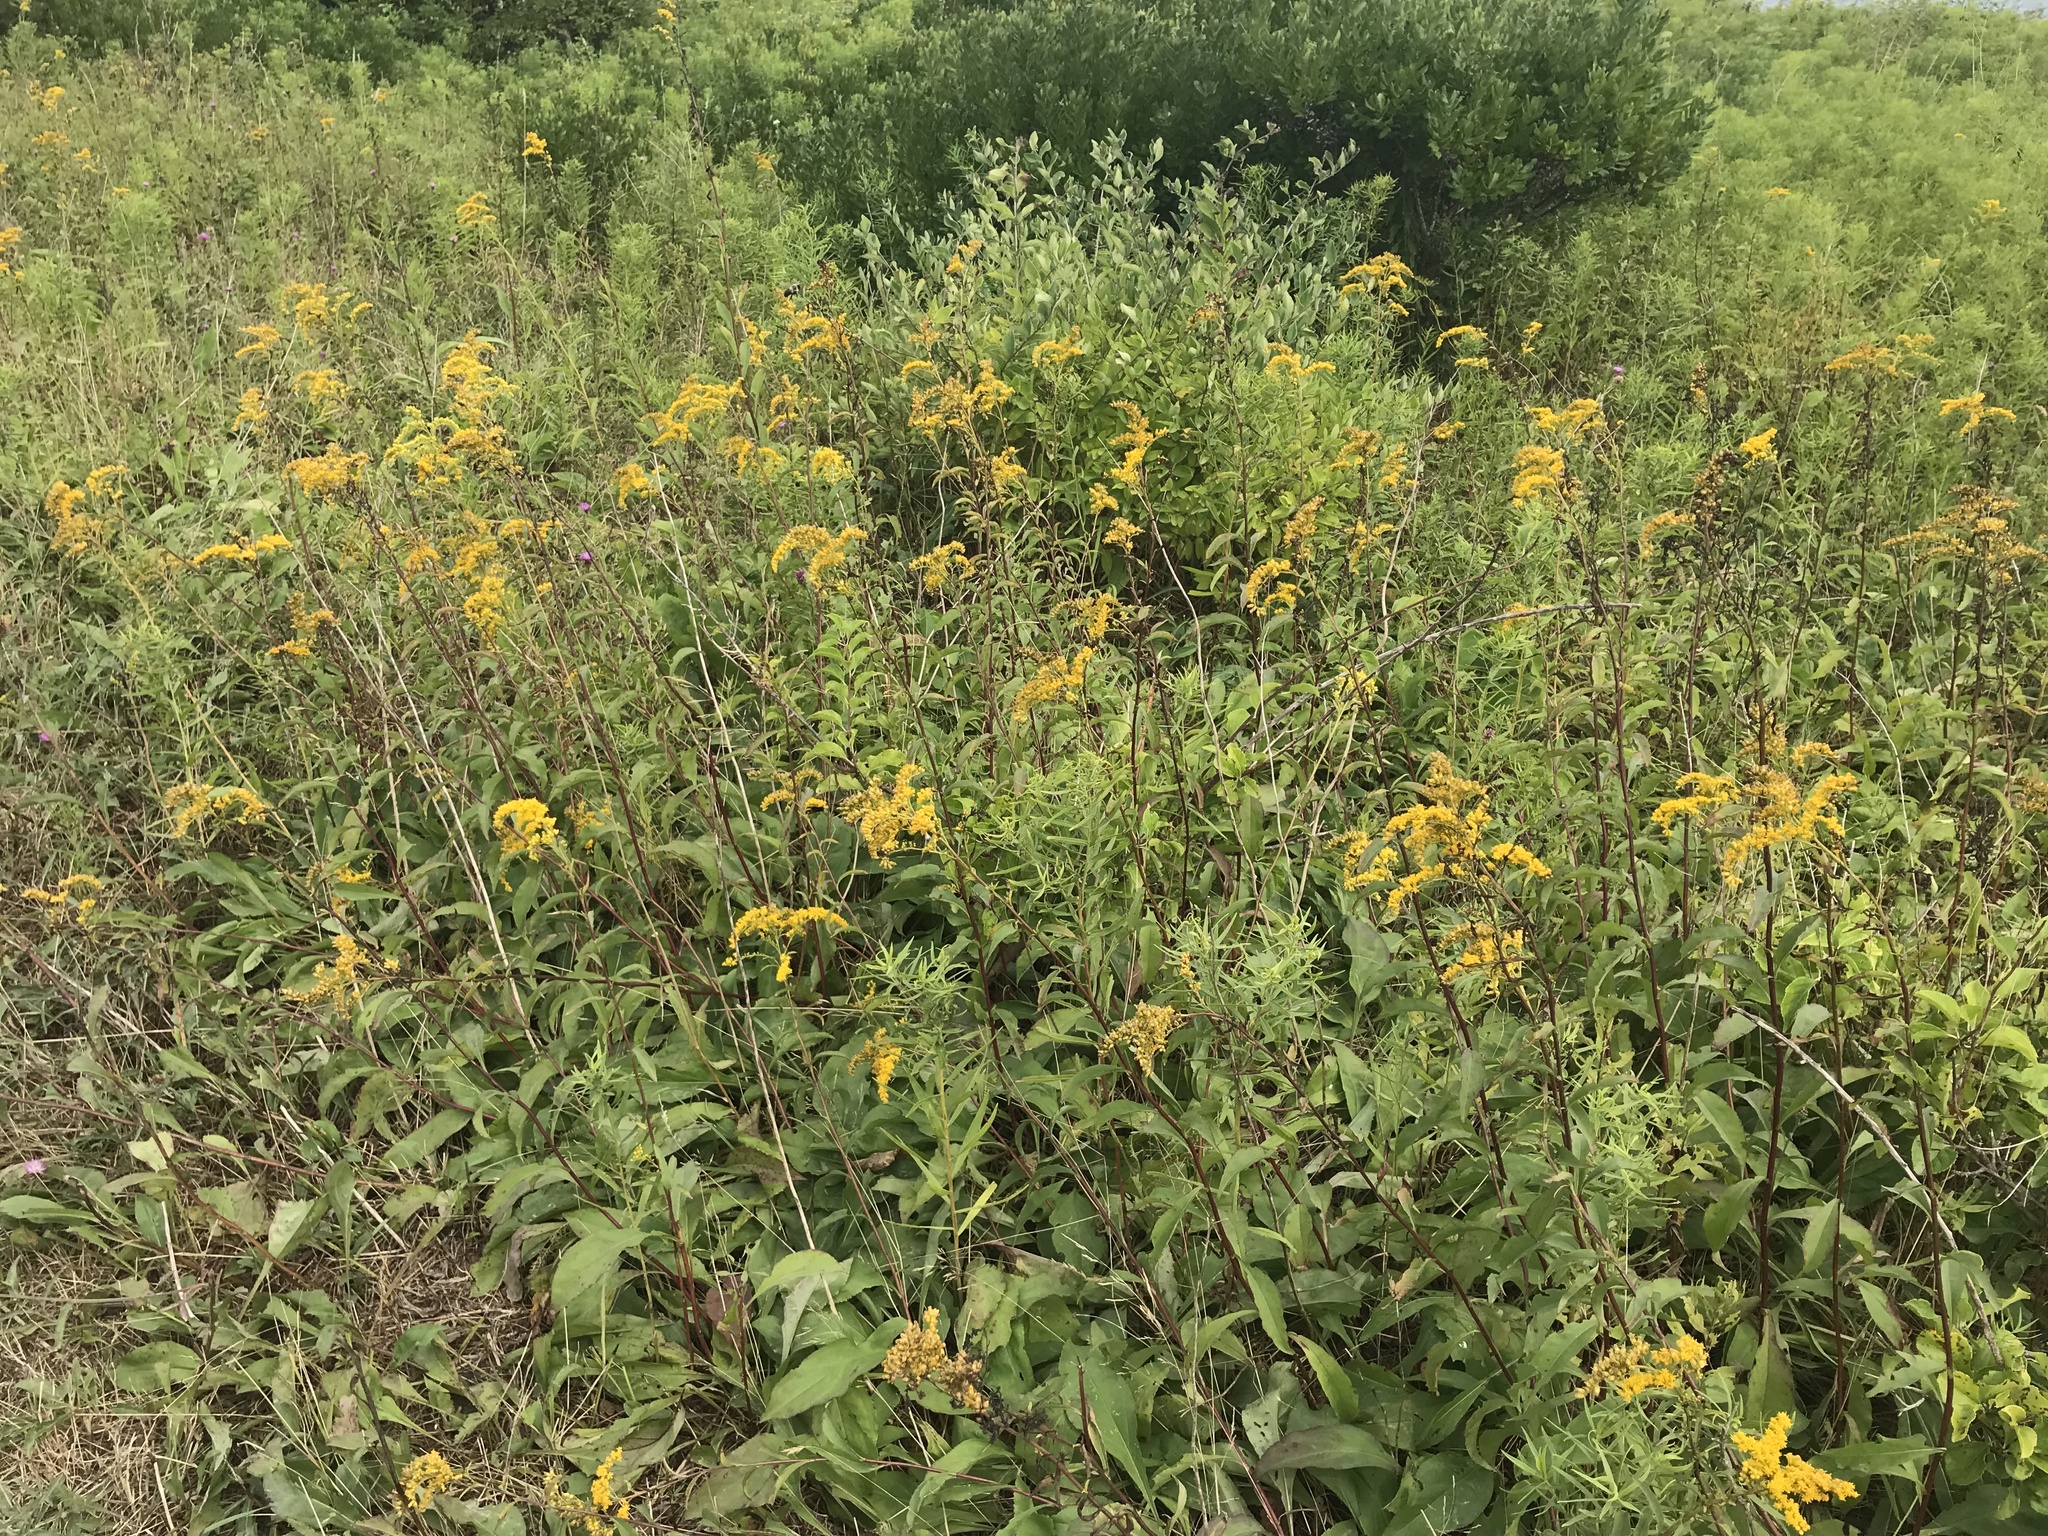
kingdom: Plantae
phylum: Tracheophyta
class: Magnoliopsida
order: Asterales
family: Asteraceae
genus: Solidago
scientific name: Solidago sempervirens
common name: Salt-marsh goldenrod
